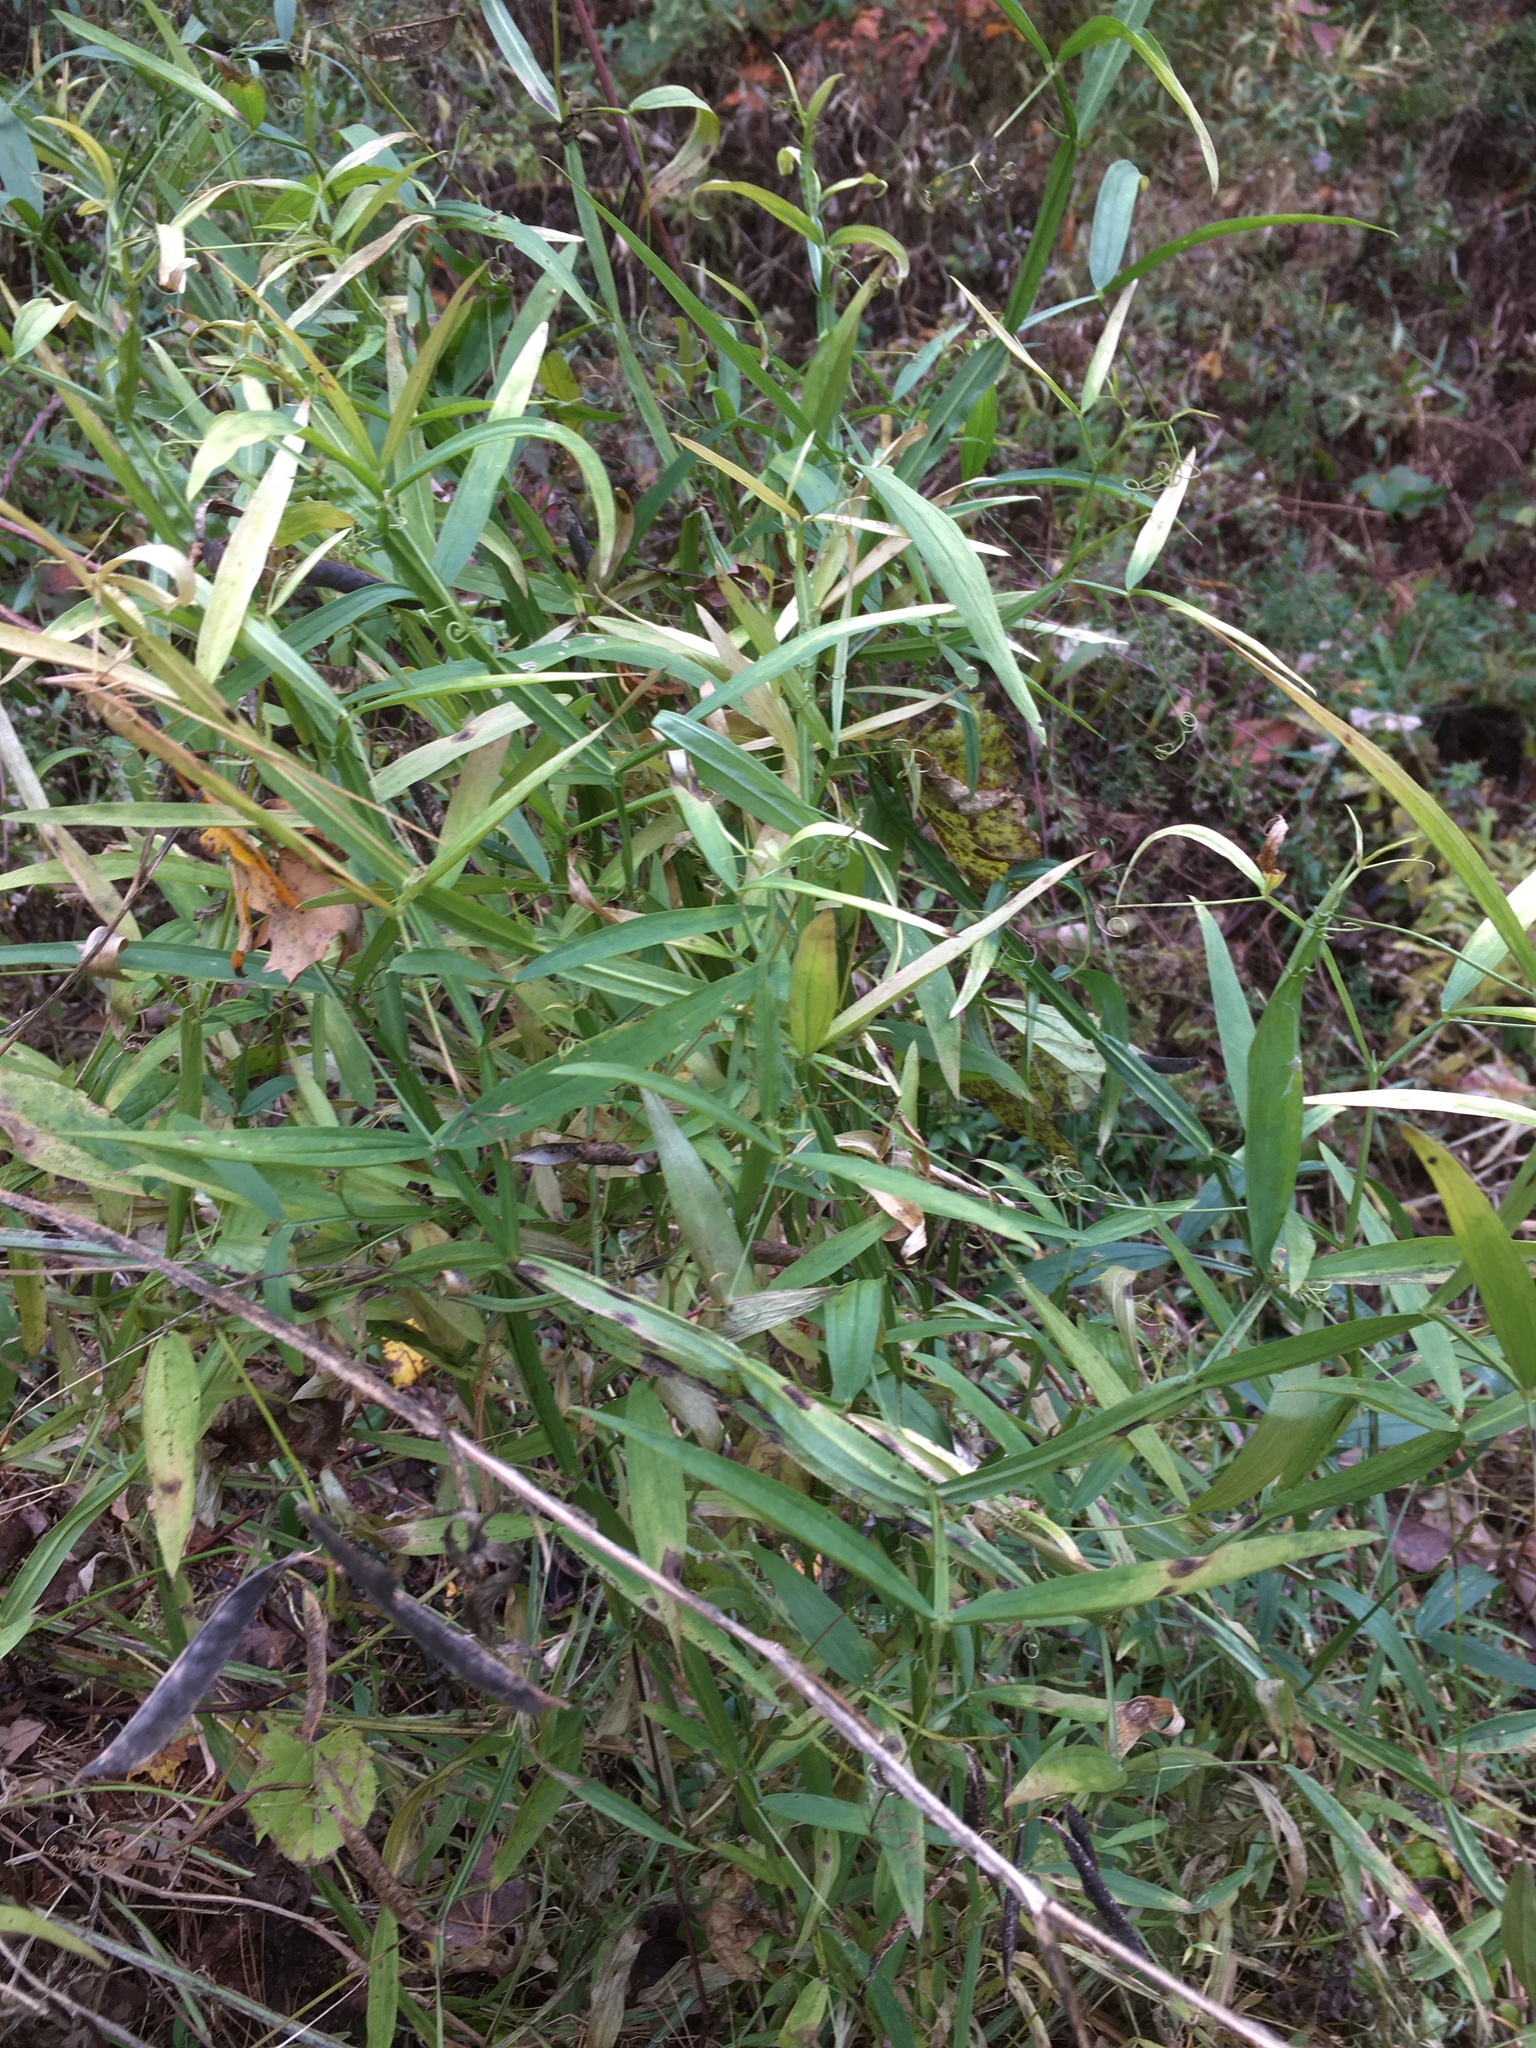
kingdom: Plantae
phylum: Tracheophyta
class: Magnoliopsida
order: Fabales
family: Fabaceae
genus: Lathyrus
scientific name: Lathyrus sylvestris
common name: Flat pea
